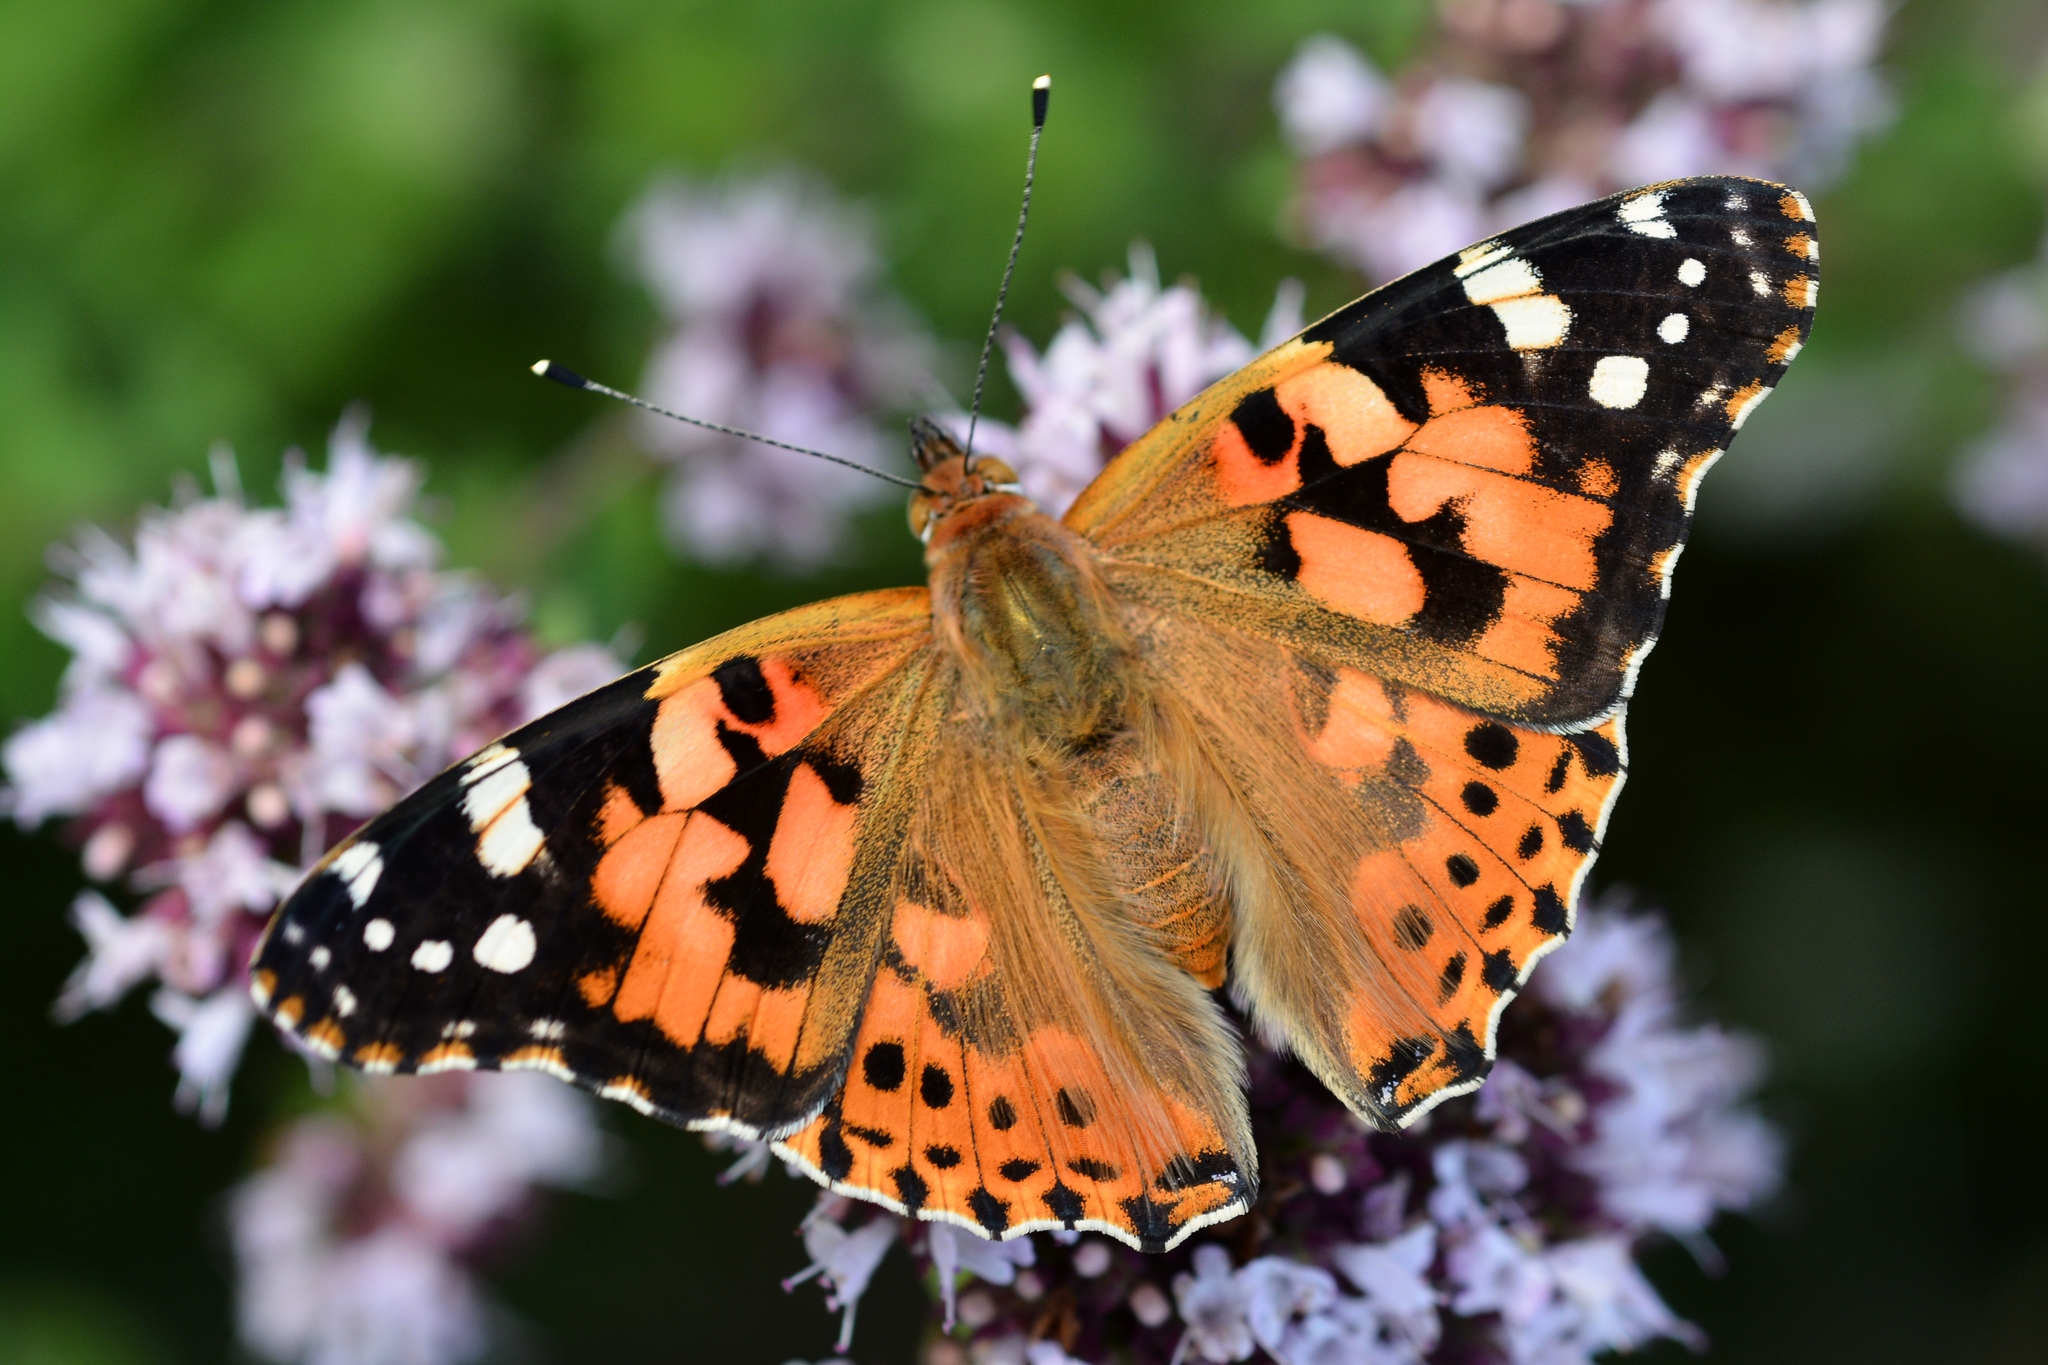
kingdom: Animalia
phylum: Arthropoda
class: Insecta
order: Lepidoptera
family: Nymphalidae
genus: Vanessa
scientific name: Vanessa cardui
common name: Painted lady
